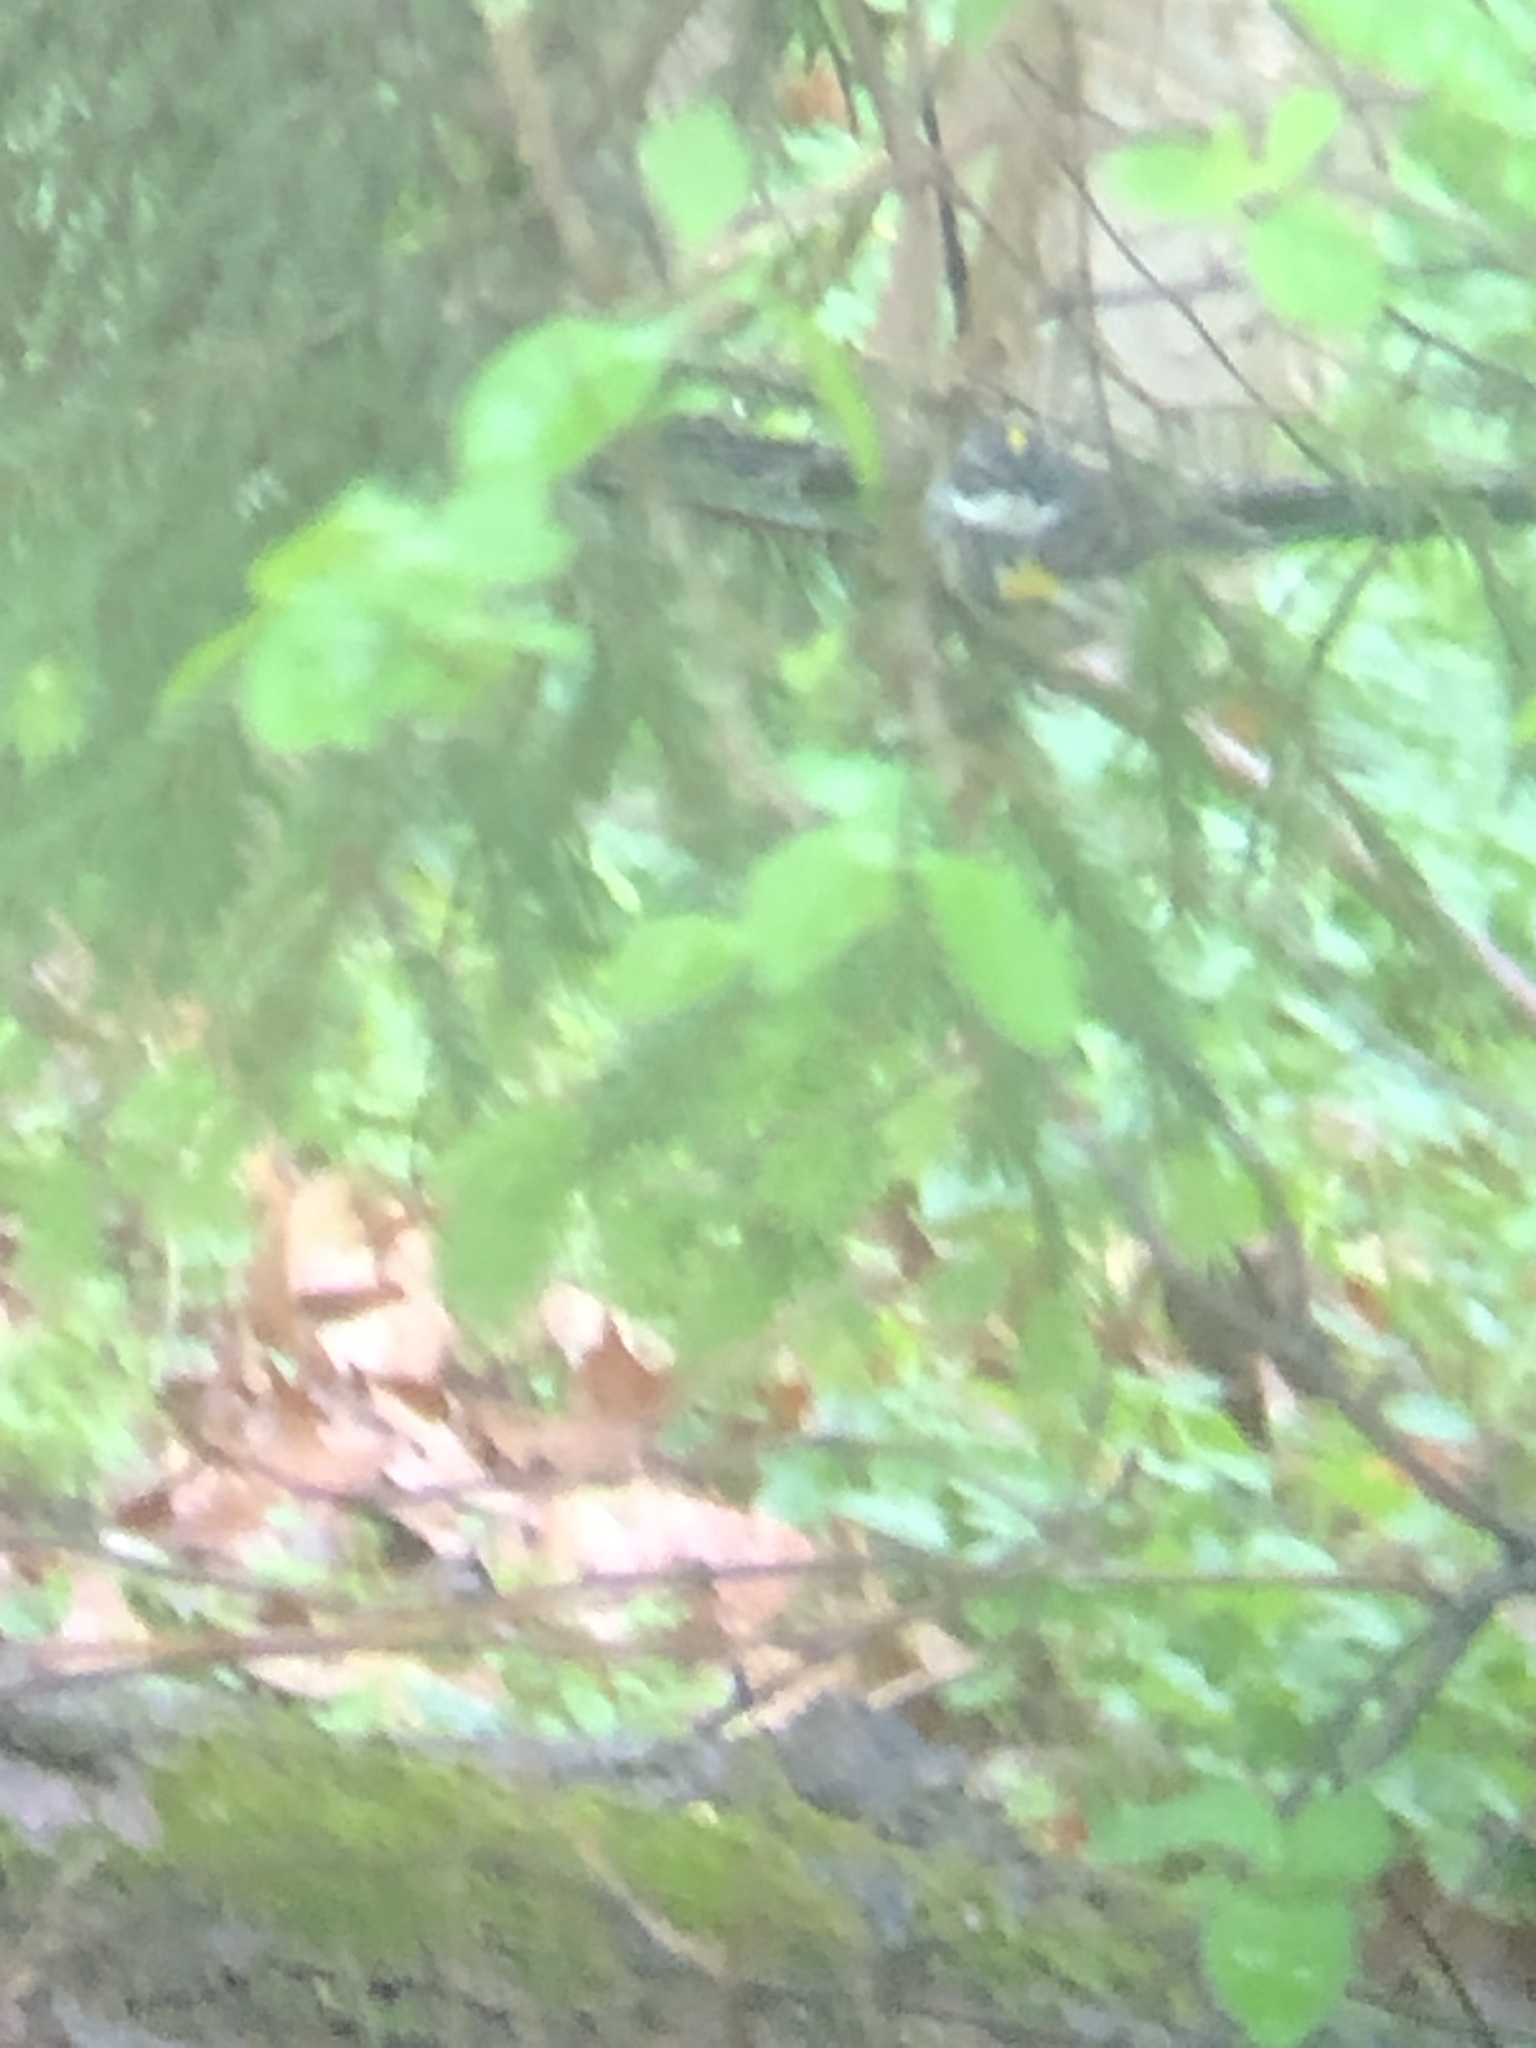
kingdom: Animalia
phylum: Chordata
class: Aves
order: Passeriformes
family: Parulidae
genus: Setophaga
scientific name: Setophaga coronata
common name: Myrtle warbler
